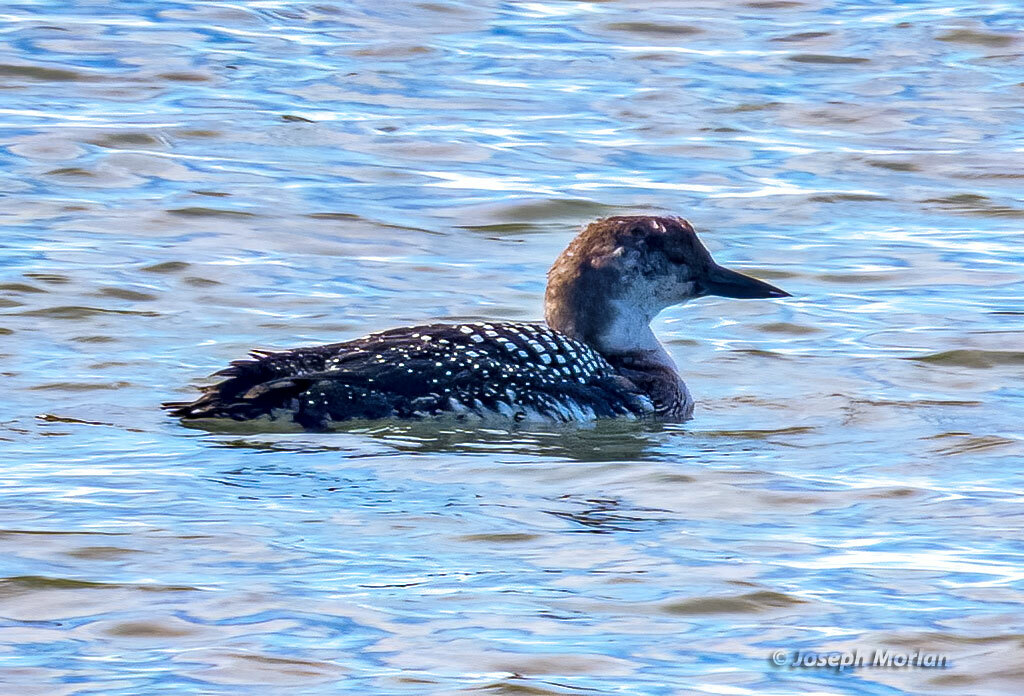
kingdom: Animalia
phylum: Chordata
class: Aves
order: Gaviiformes
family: Gaviidae
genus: Gavia
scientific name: Gavia immer
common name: Common loon
